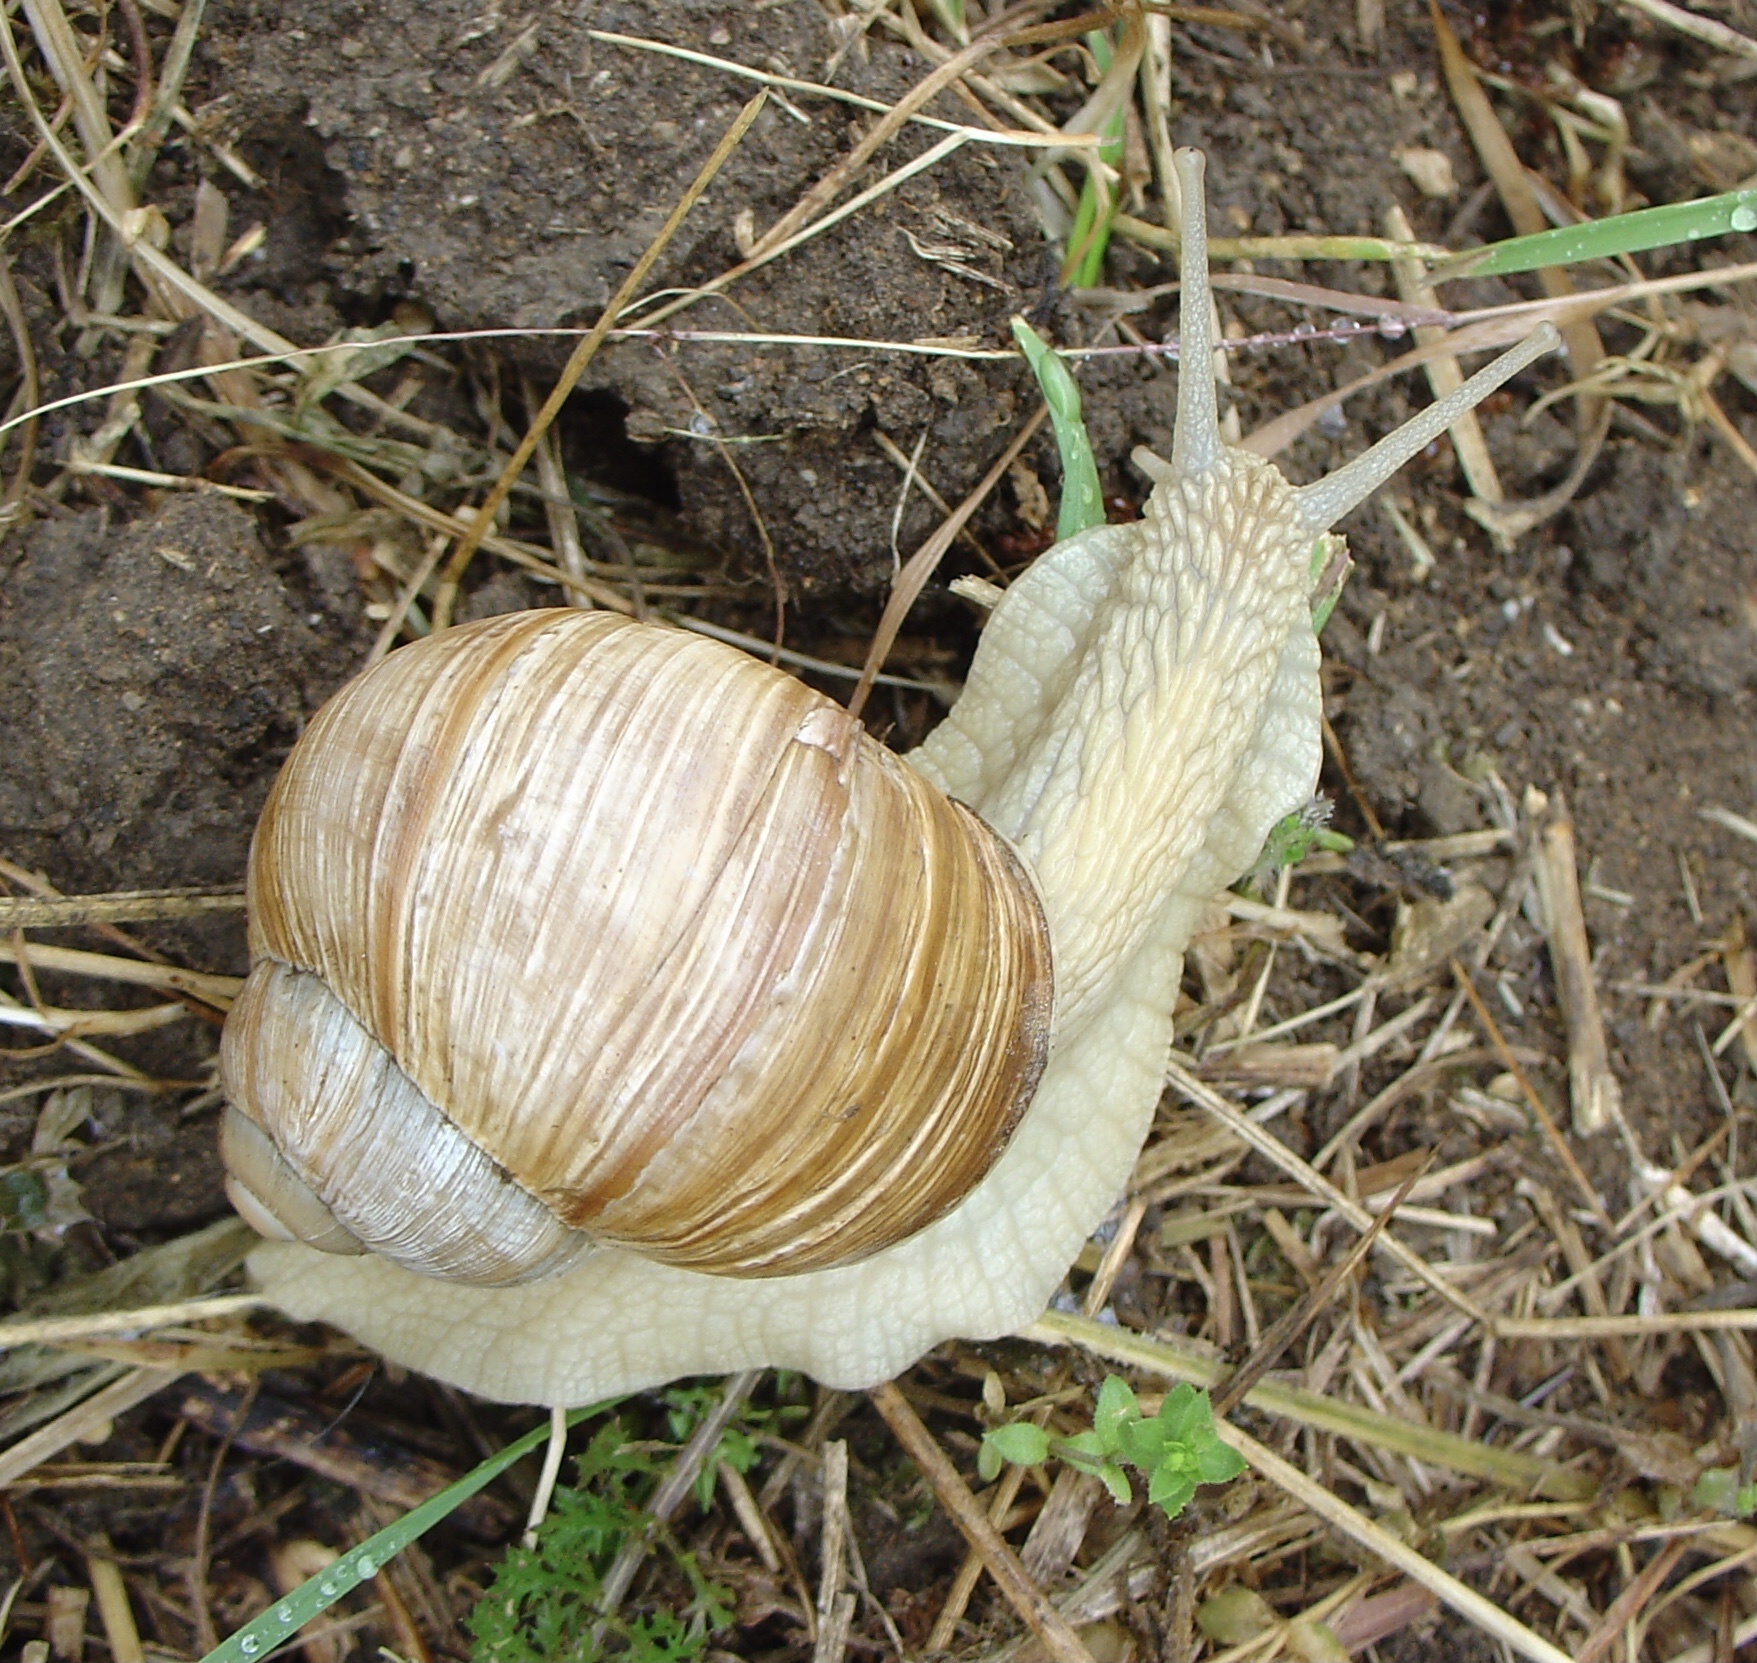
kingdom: Animalia
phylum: Mollusca
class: Gastropoda
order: Stylommatophora
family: Helicidae
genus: Helix
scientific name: Helix pomatia
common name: Roman snail
